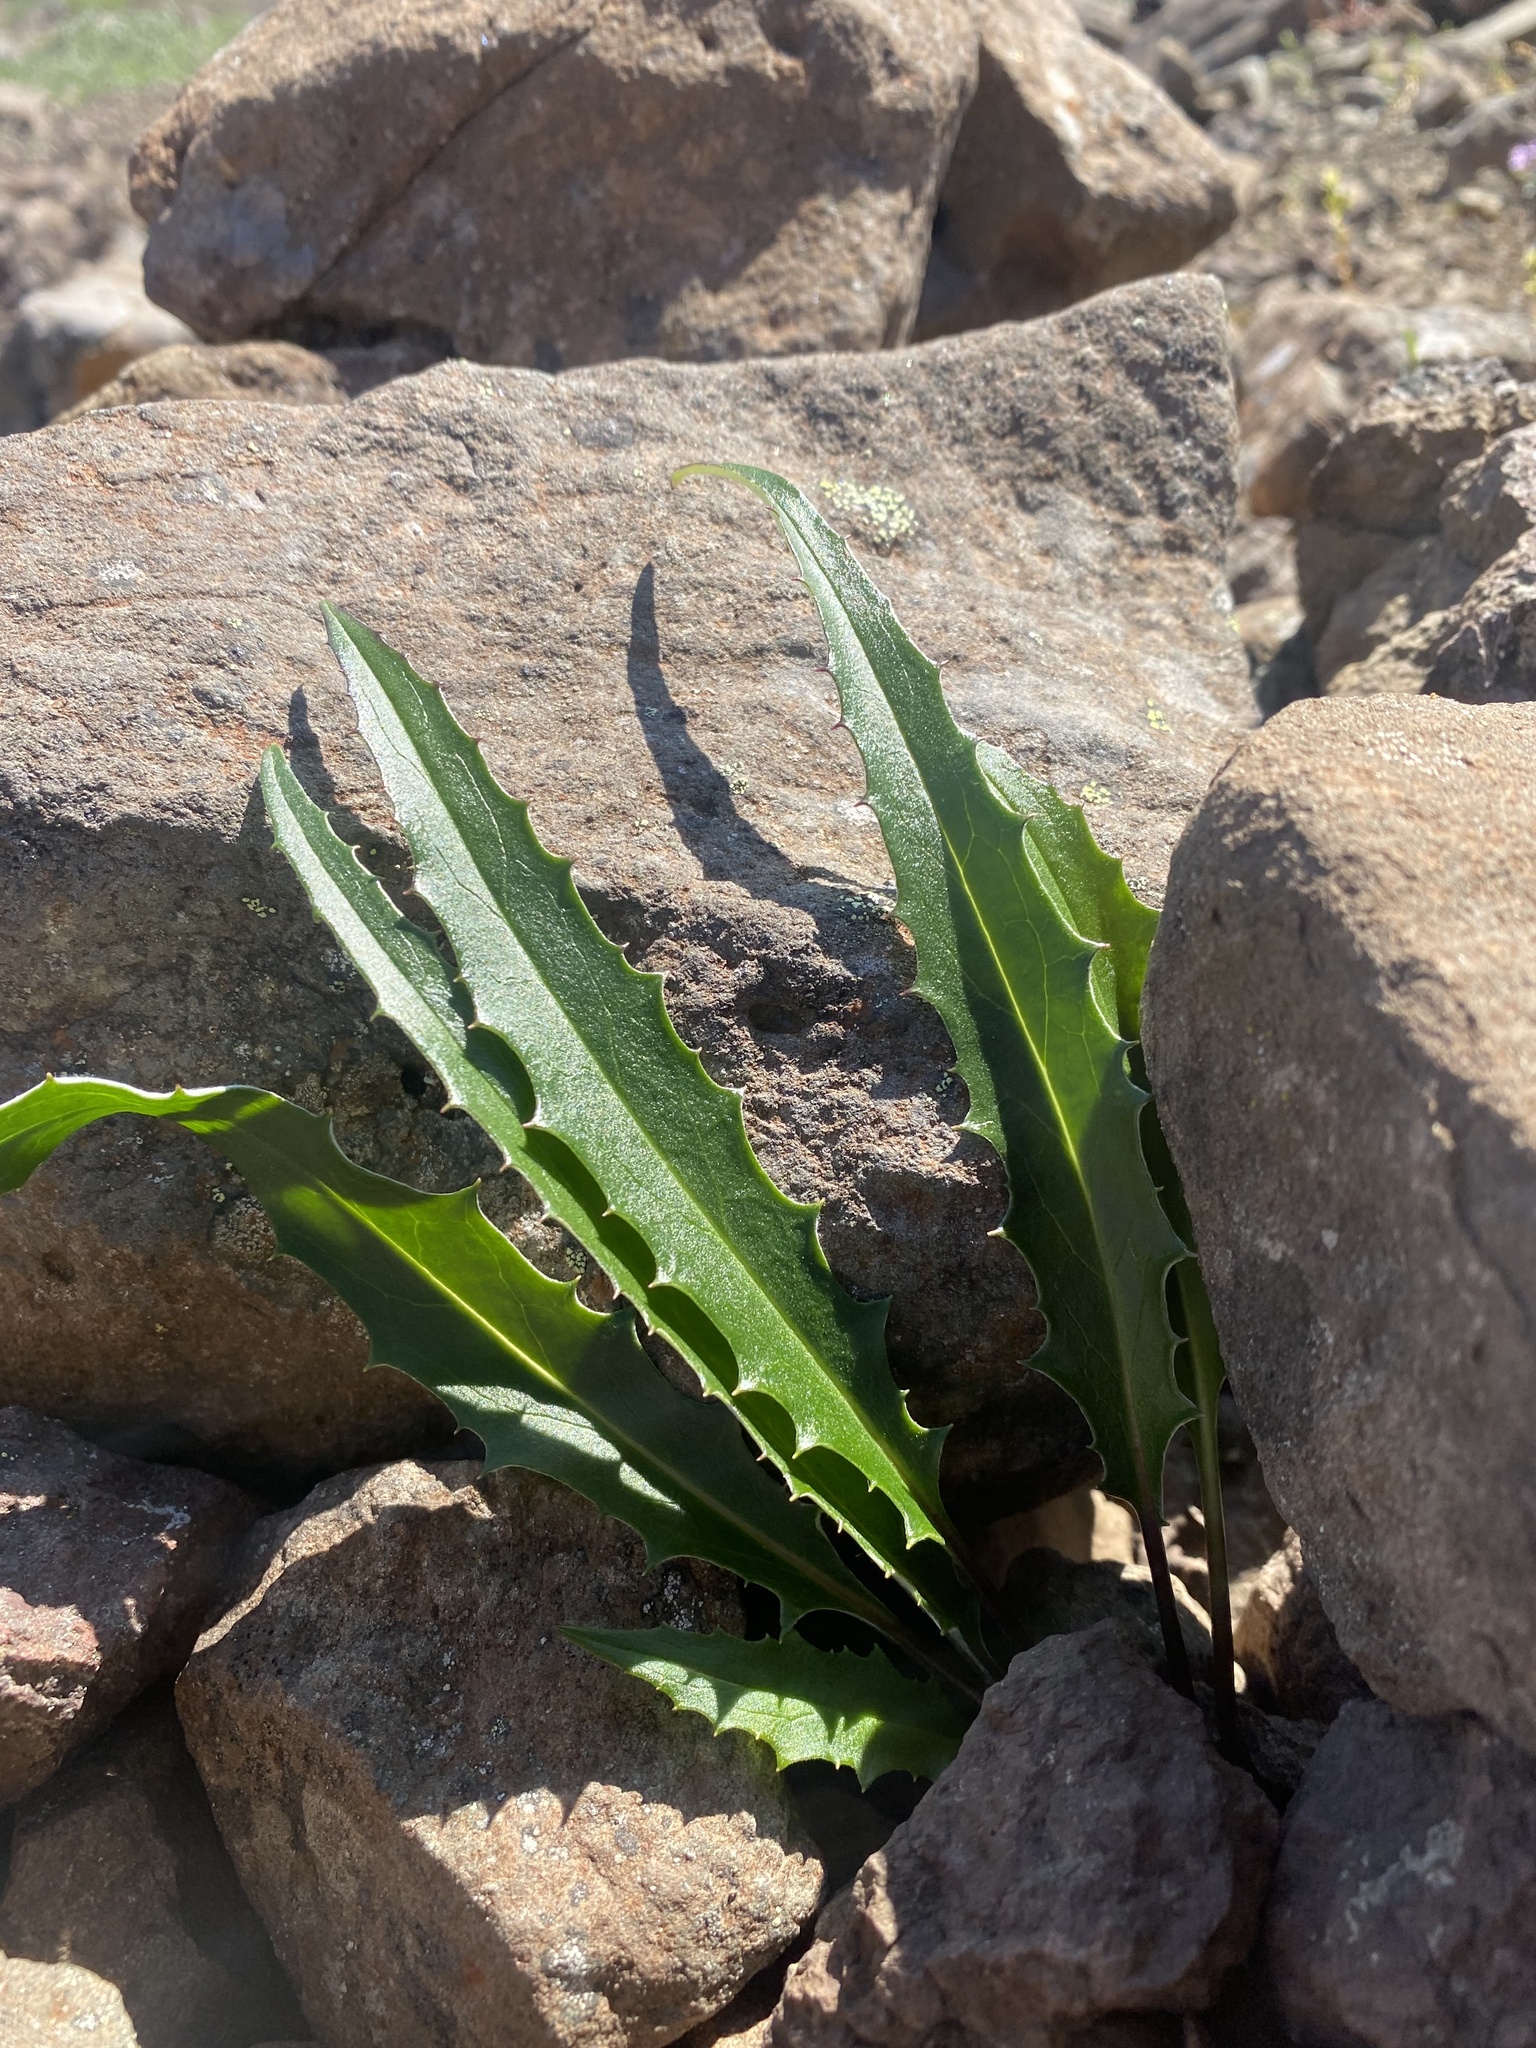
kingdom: Plantae
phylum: Tracheophyta
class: Magnoliopsida
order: Asterales
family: Asteraceae
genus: Saussurea
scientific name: Saussurea denticulata
